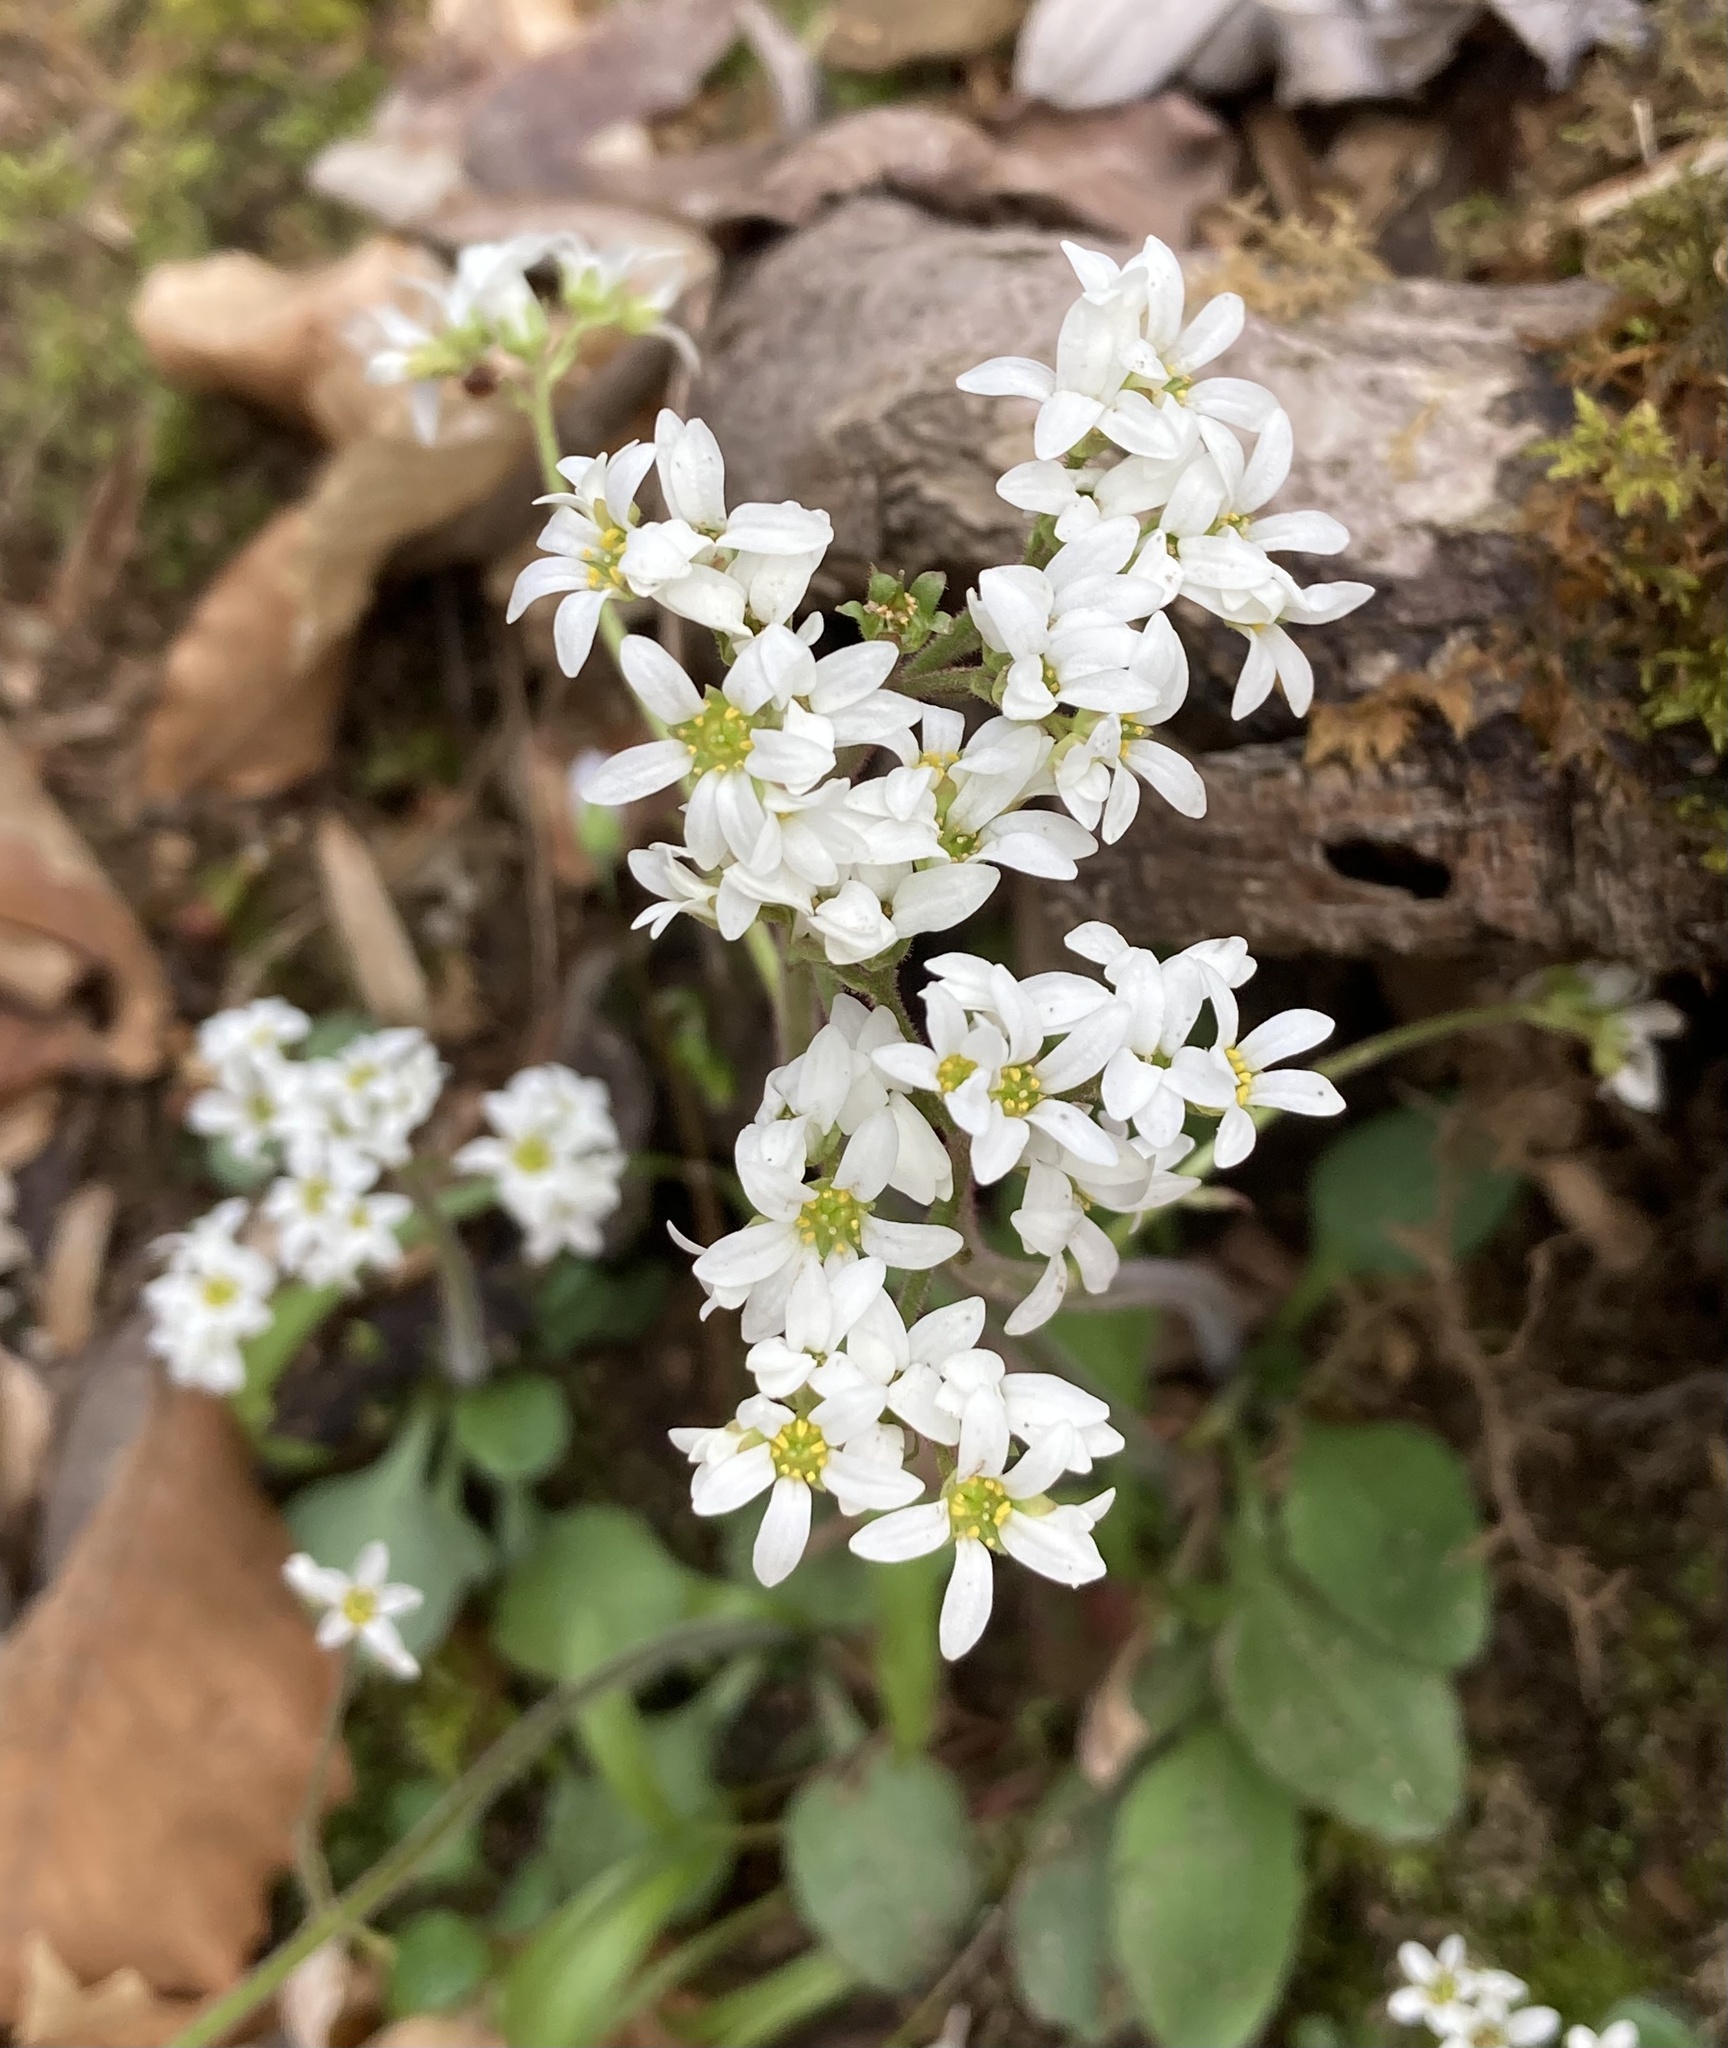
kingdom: Plantae
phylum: Tracheophyta
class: Magnoliopsida
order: Saxifragales
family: Saxifragaceae
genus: Micranthes
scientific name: Micranthes virginiensis
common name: Early saxifrage
